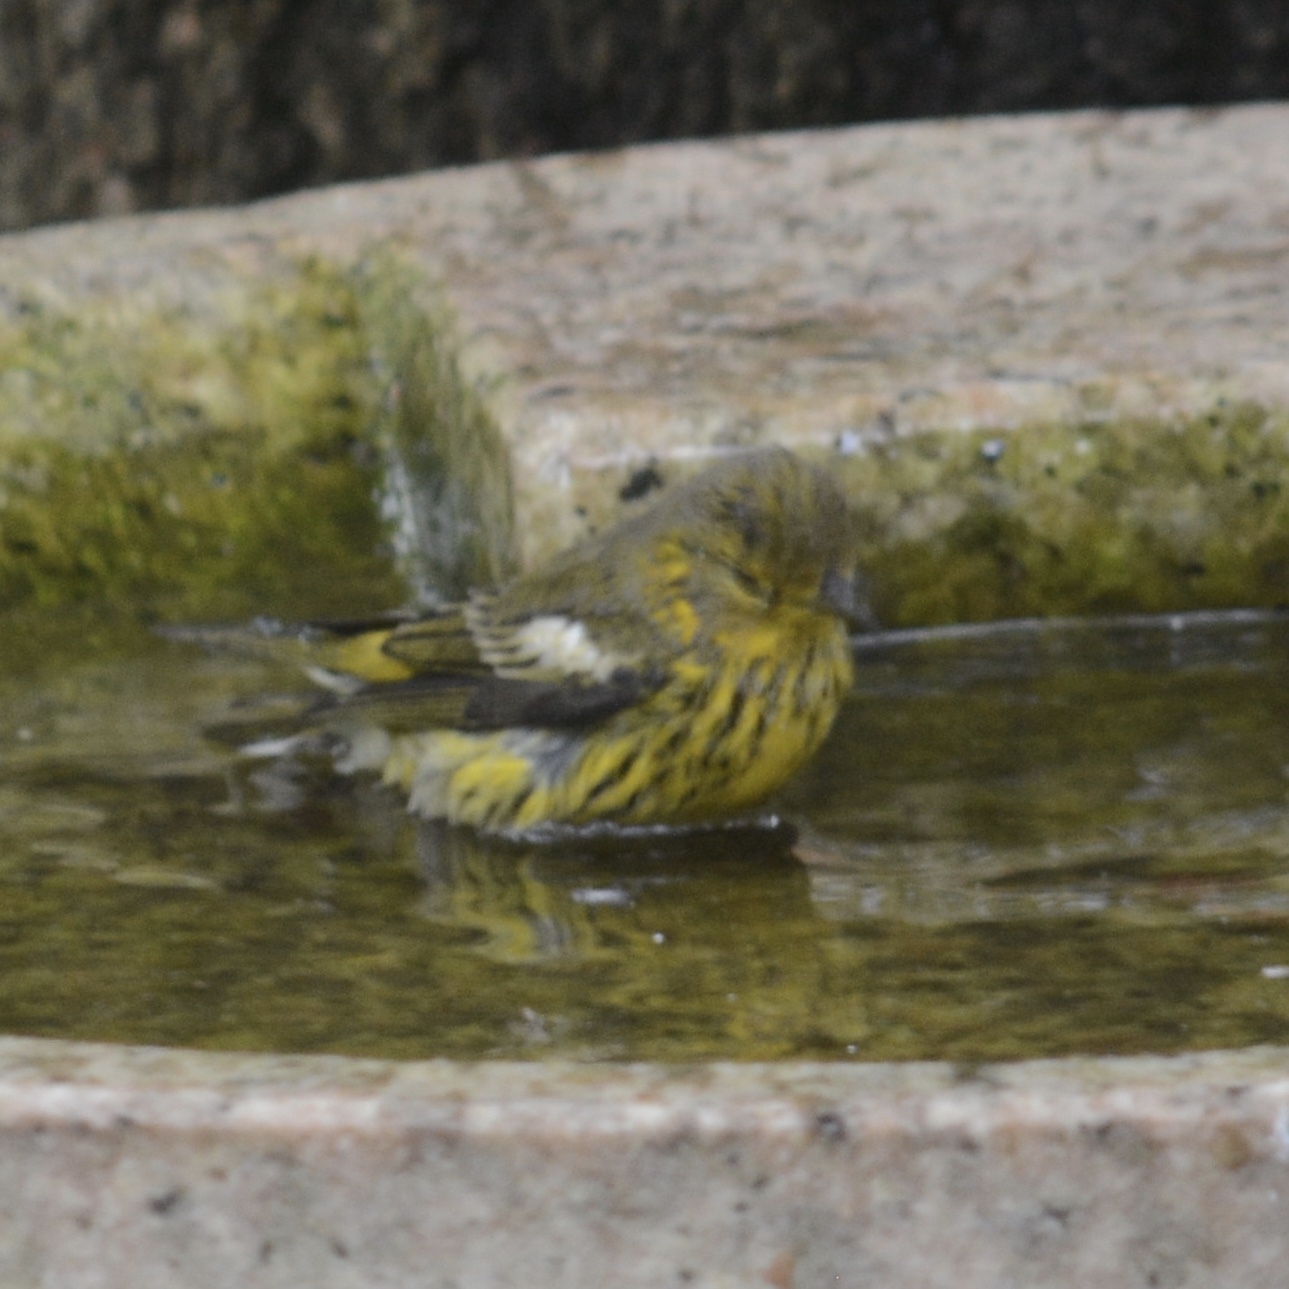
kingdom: Animalia
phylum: Chordata
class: Aves
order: Passeriformes
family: Parulidae
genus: Setophaga
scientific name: Setophaga tigrina
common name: Cape may warbler
